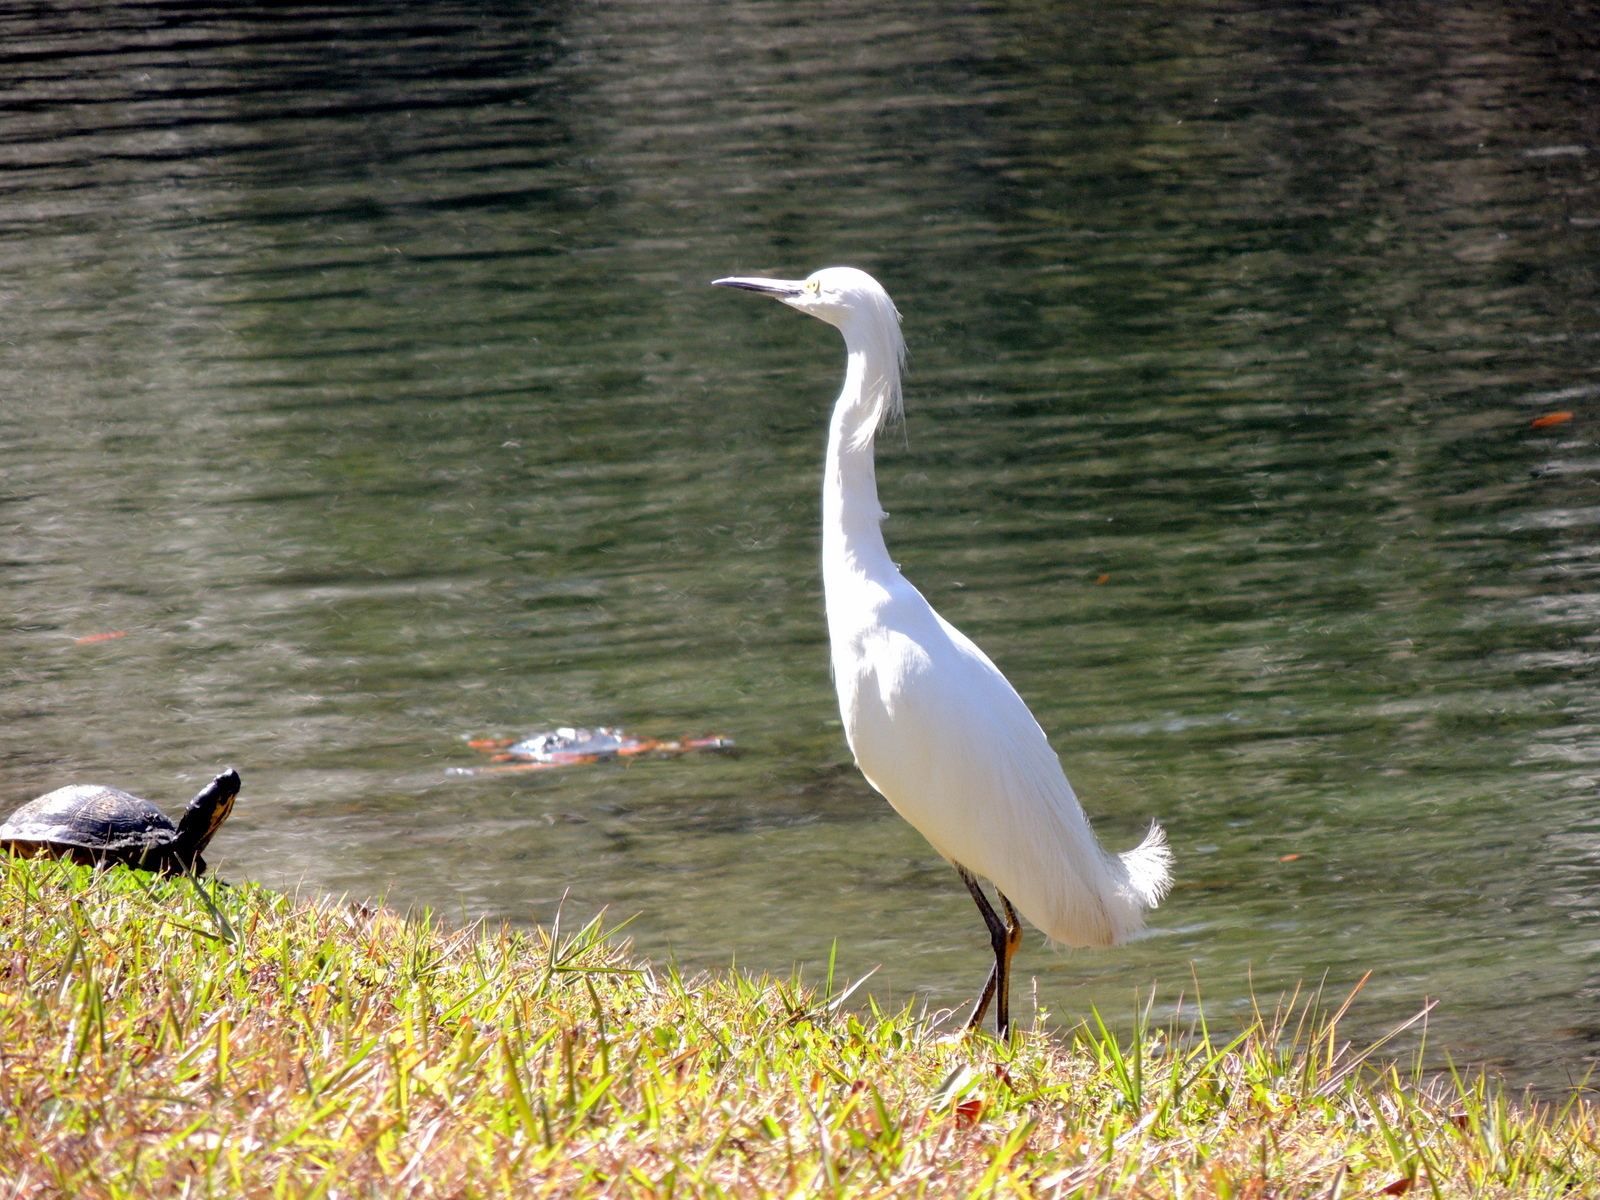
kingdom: Animalia
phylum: Chordata
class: Aves
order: Pelecaniformes
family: Ardeidae
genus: Egretta
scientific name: Egretta thula
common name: Snowy egret
